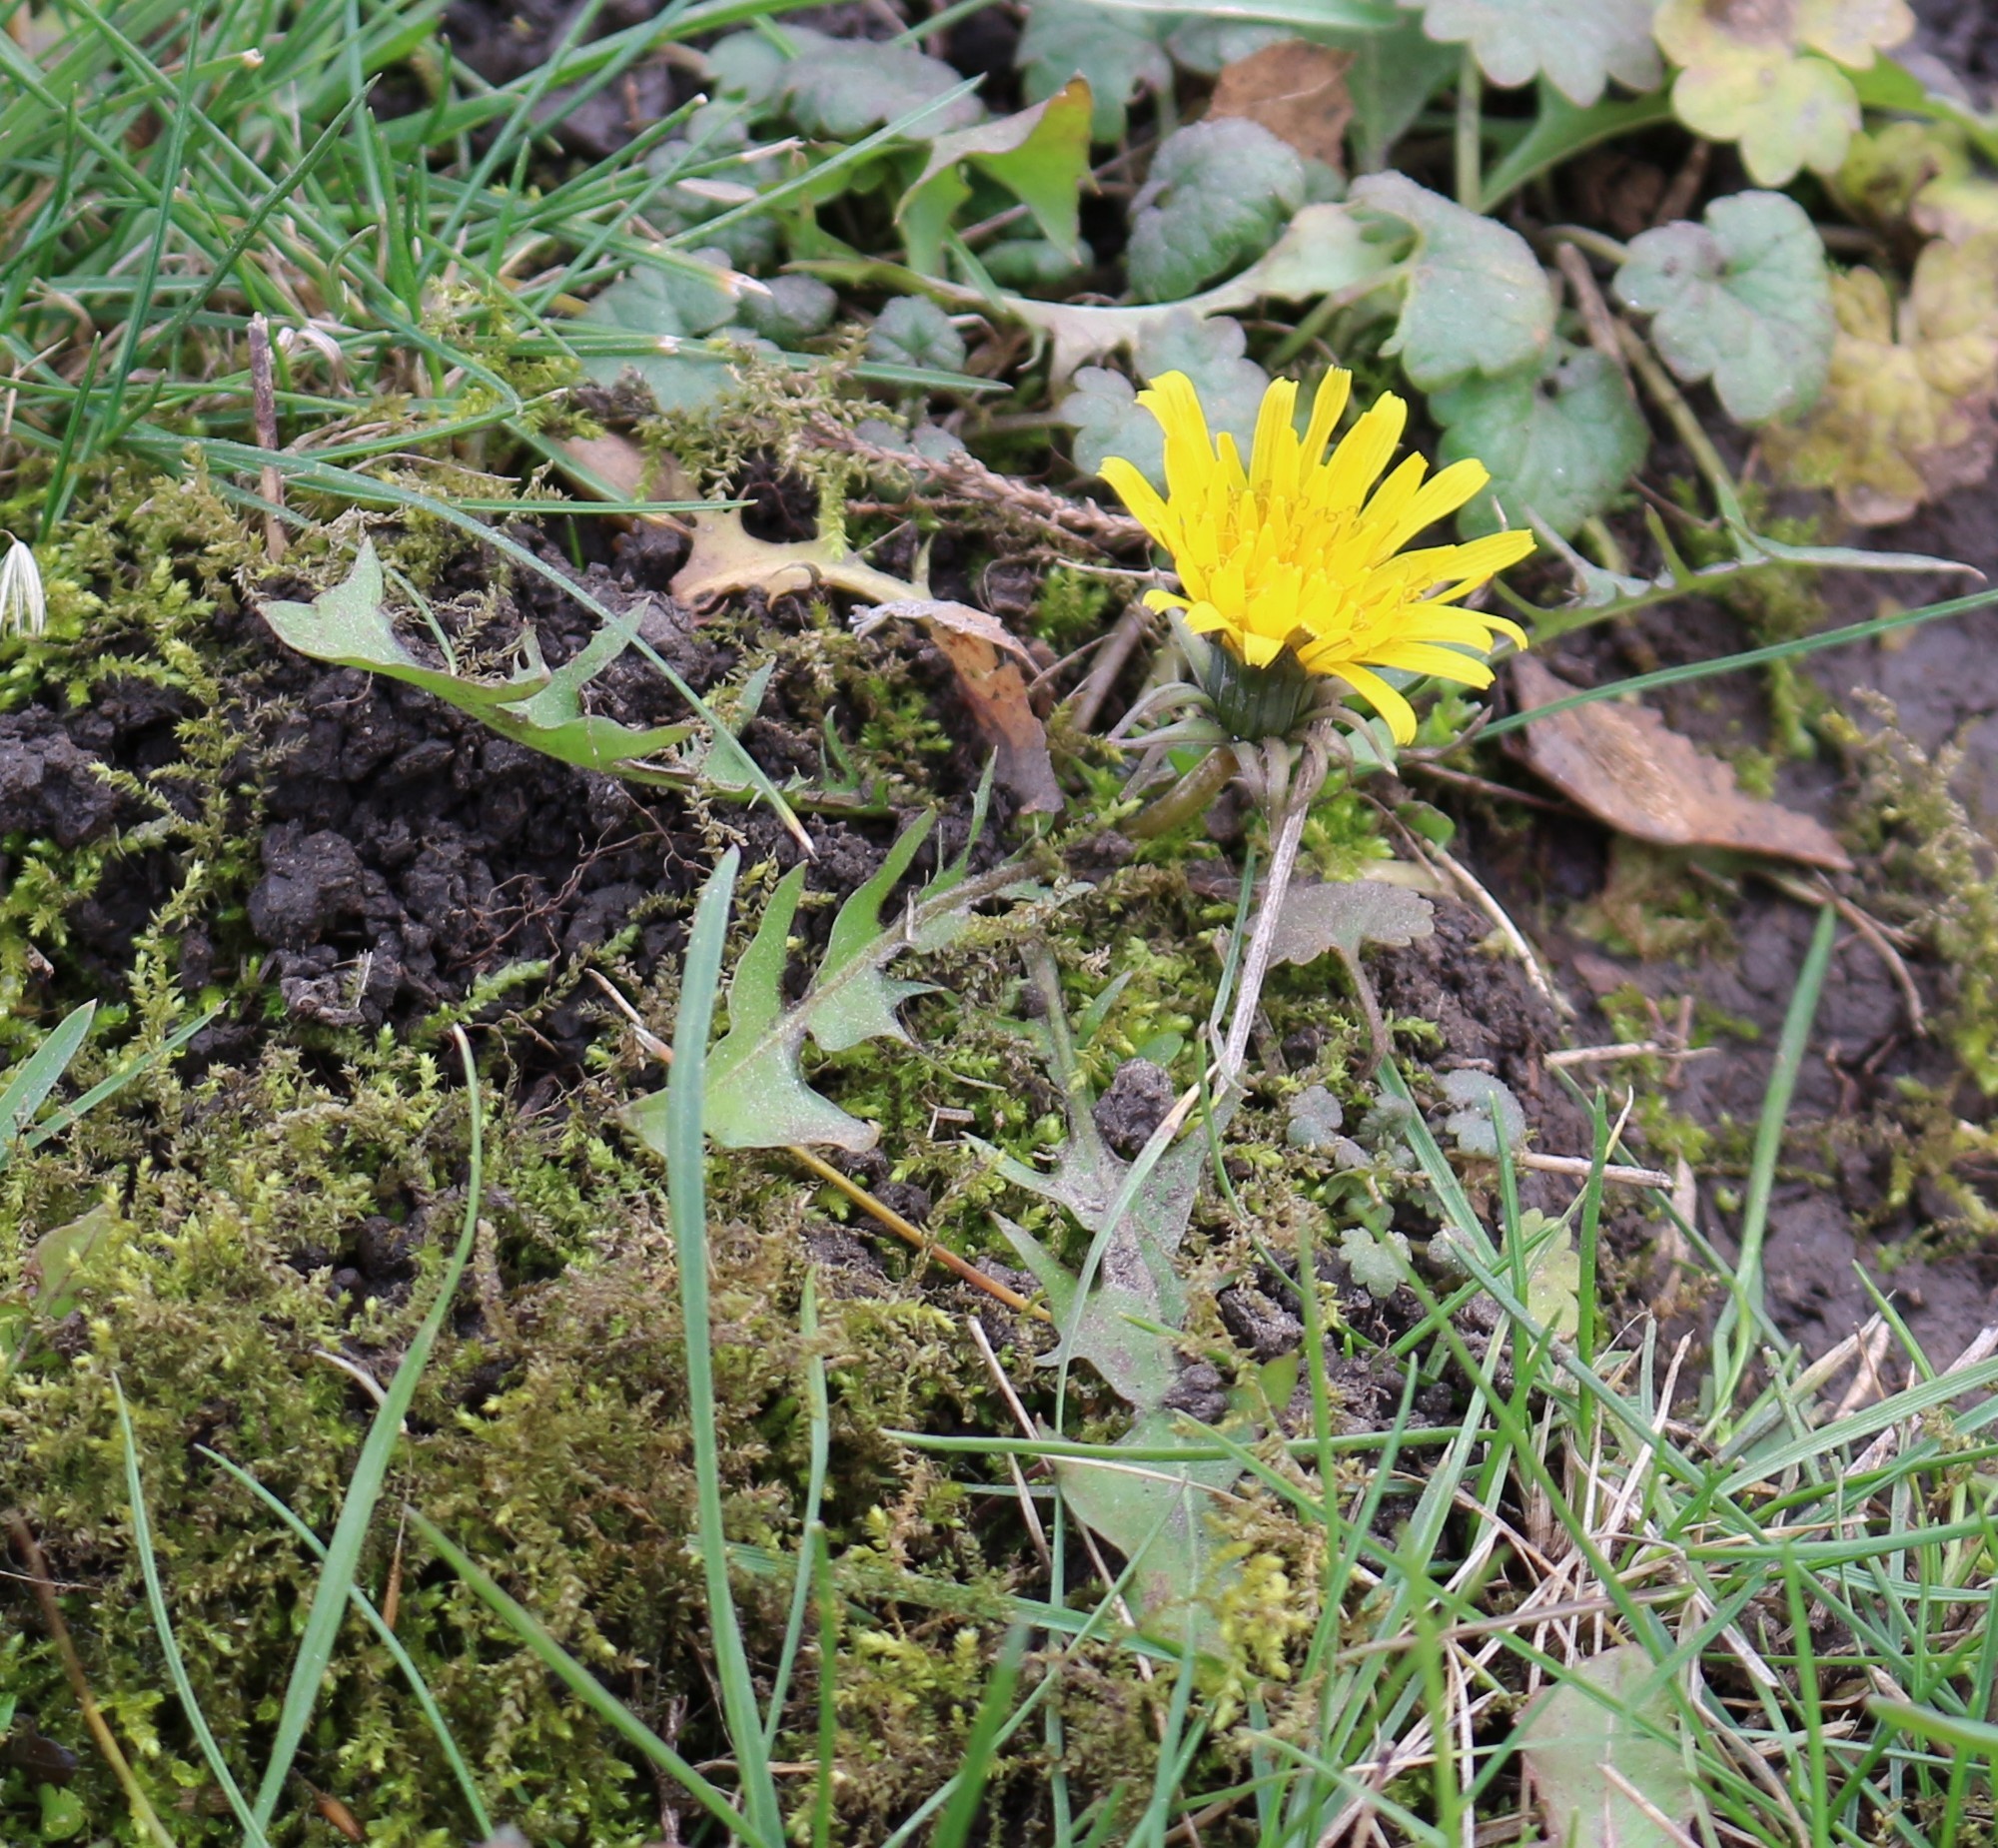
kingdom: Plantae
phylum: Tracheophyta
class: Magnoliopsida
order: Asterales
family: Asteraceae
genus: Taraxacum
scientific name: Taraxacum officinale
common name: Common dandelion
